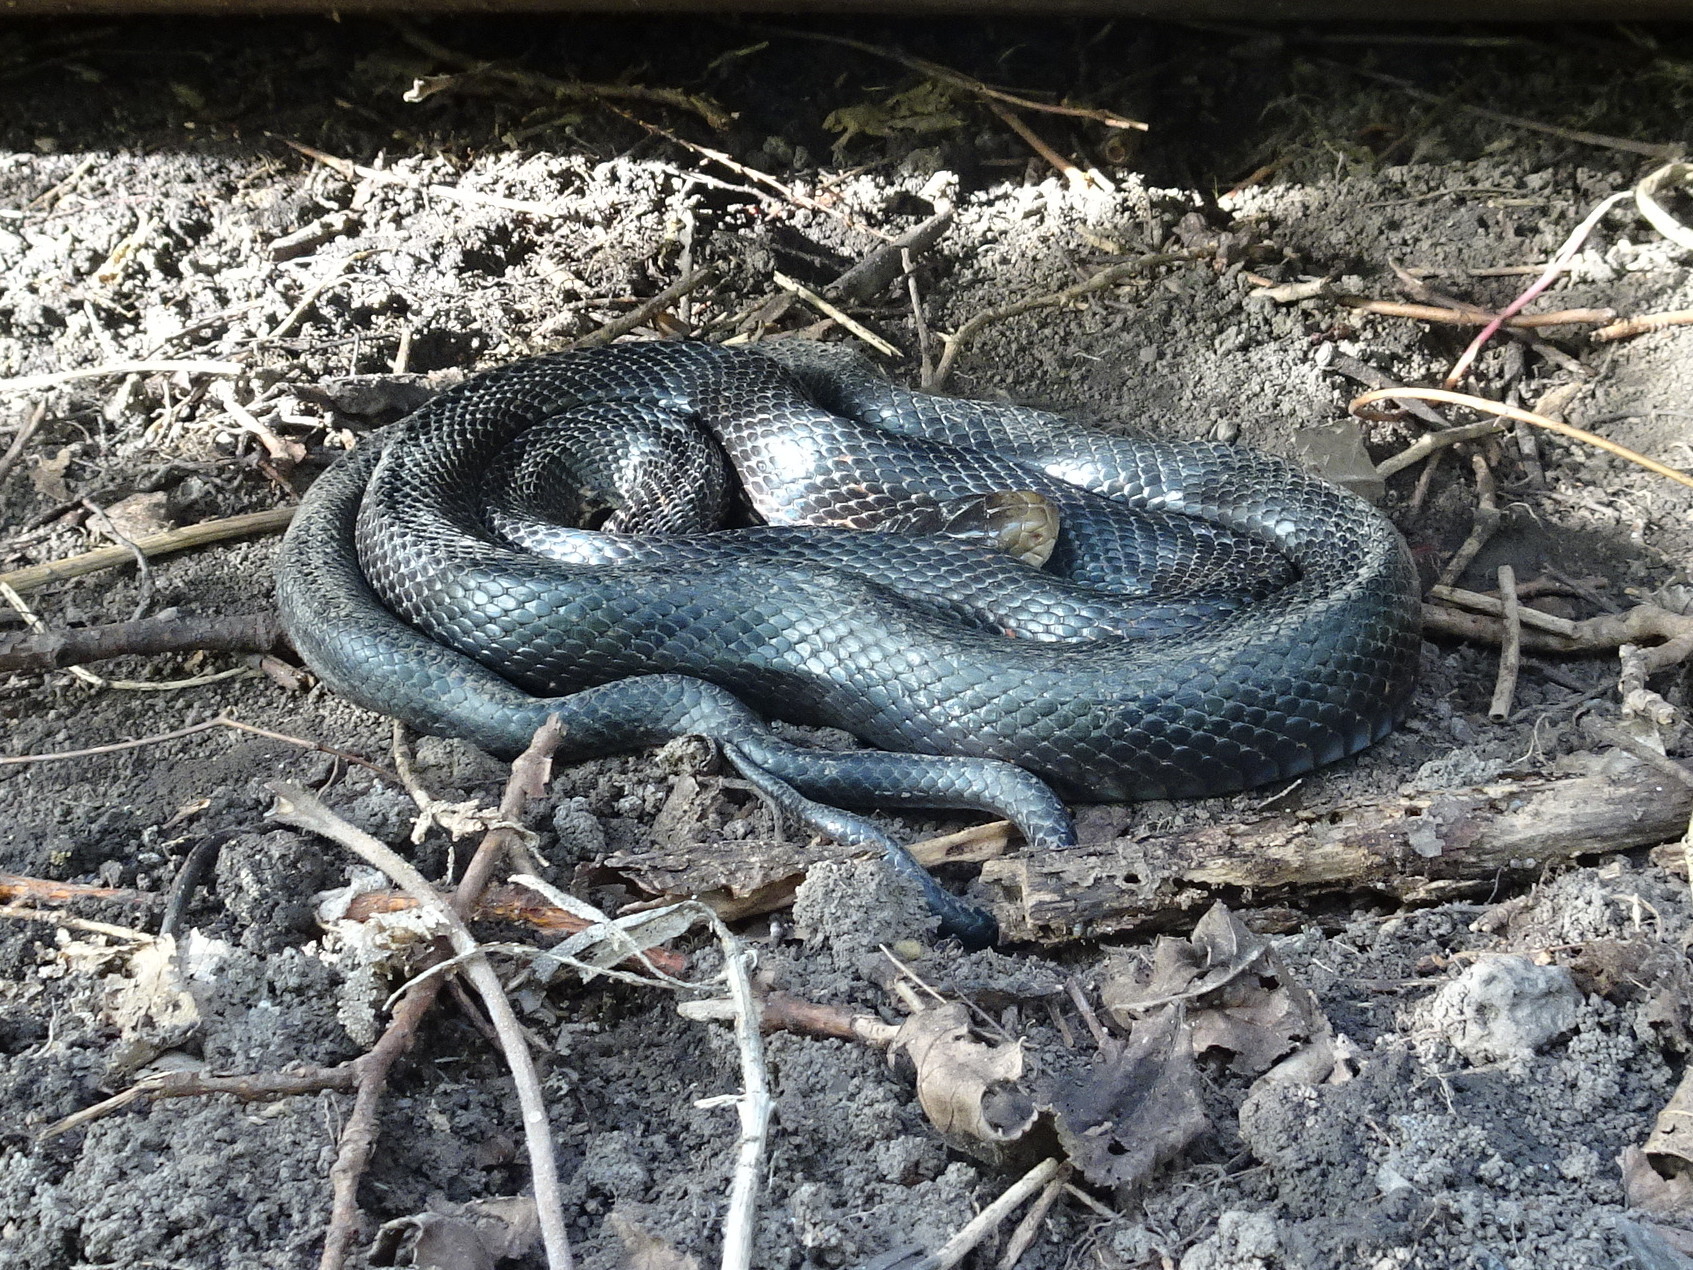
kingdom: Animalia
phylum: Chordata
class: Squamata
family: Colubridae
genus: Pantherophis
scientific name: Pantherophis obsoletus
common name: Black rat snake
